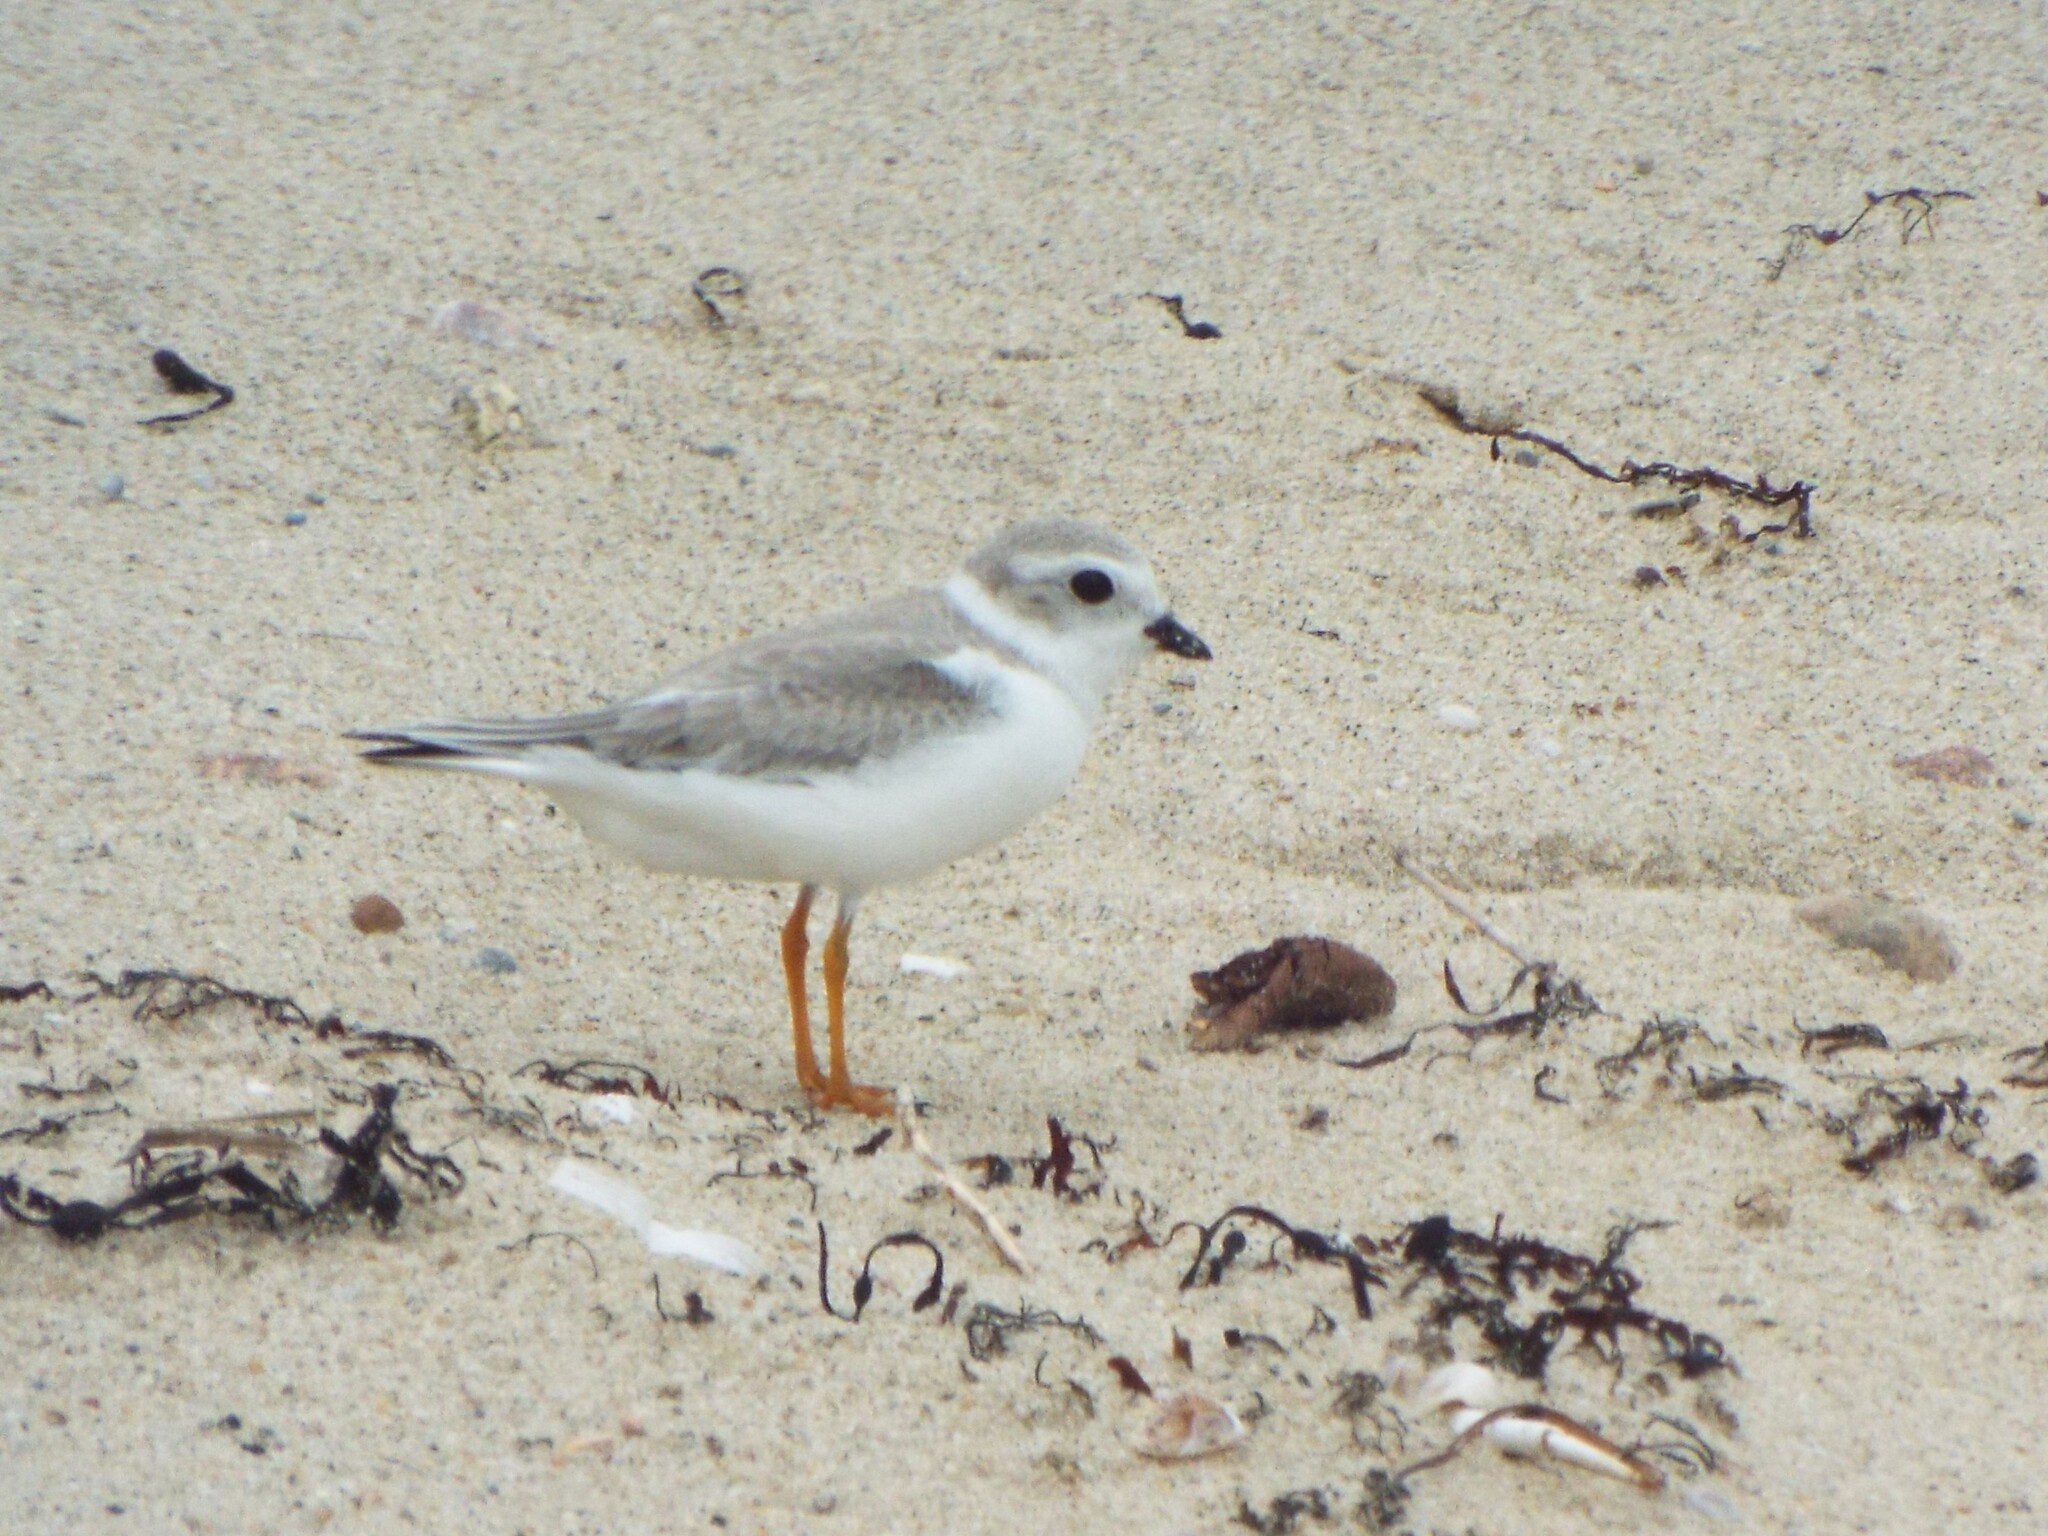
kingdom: Animalia
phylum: Chordata
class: Aves
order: Charadriiformes
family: Charadriidae
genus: Charadrius
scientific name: Charadrius melodus
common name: Piping plover
